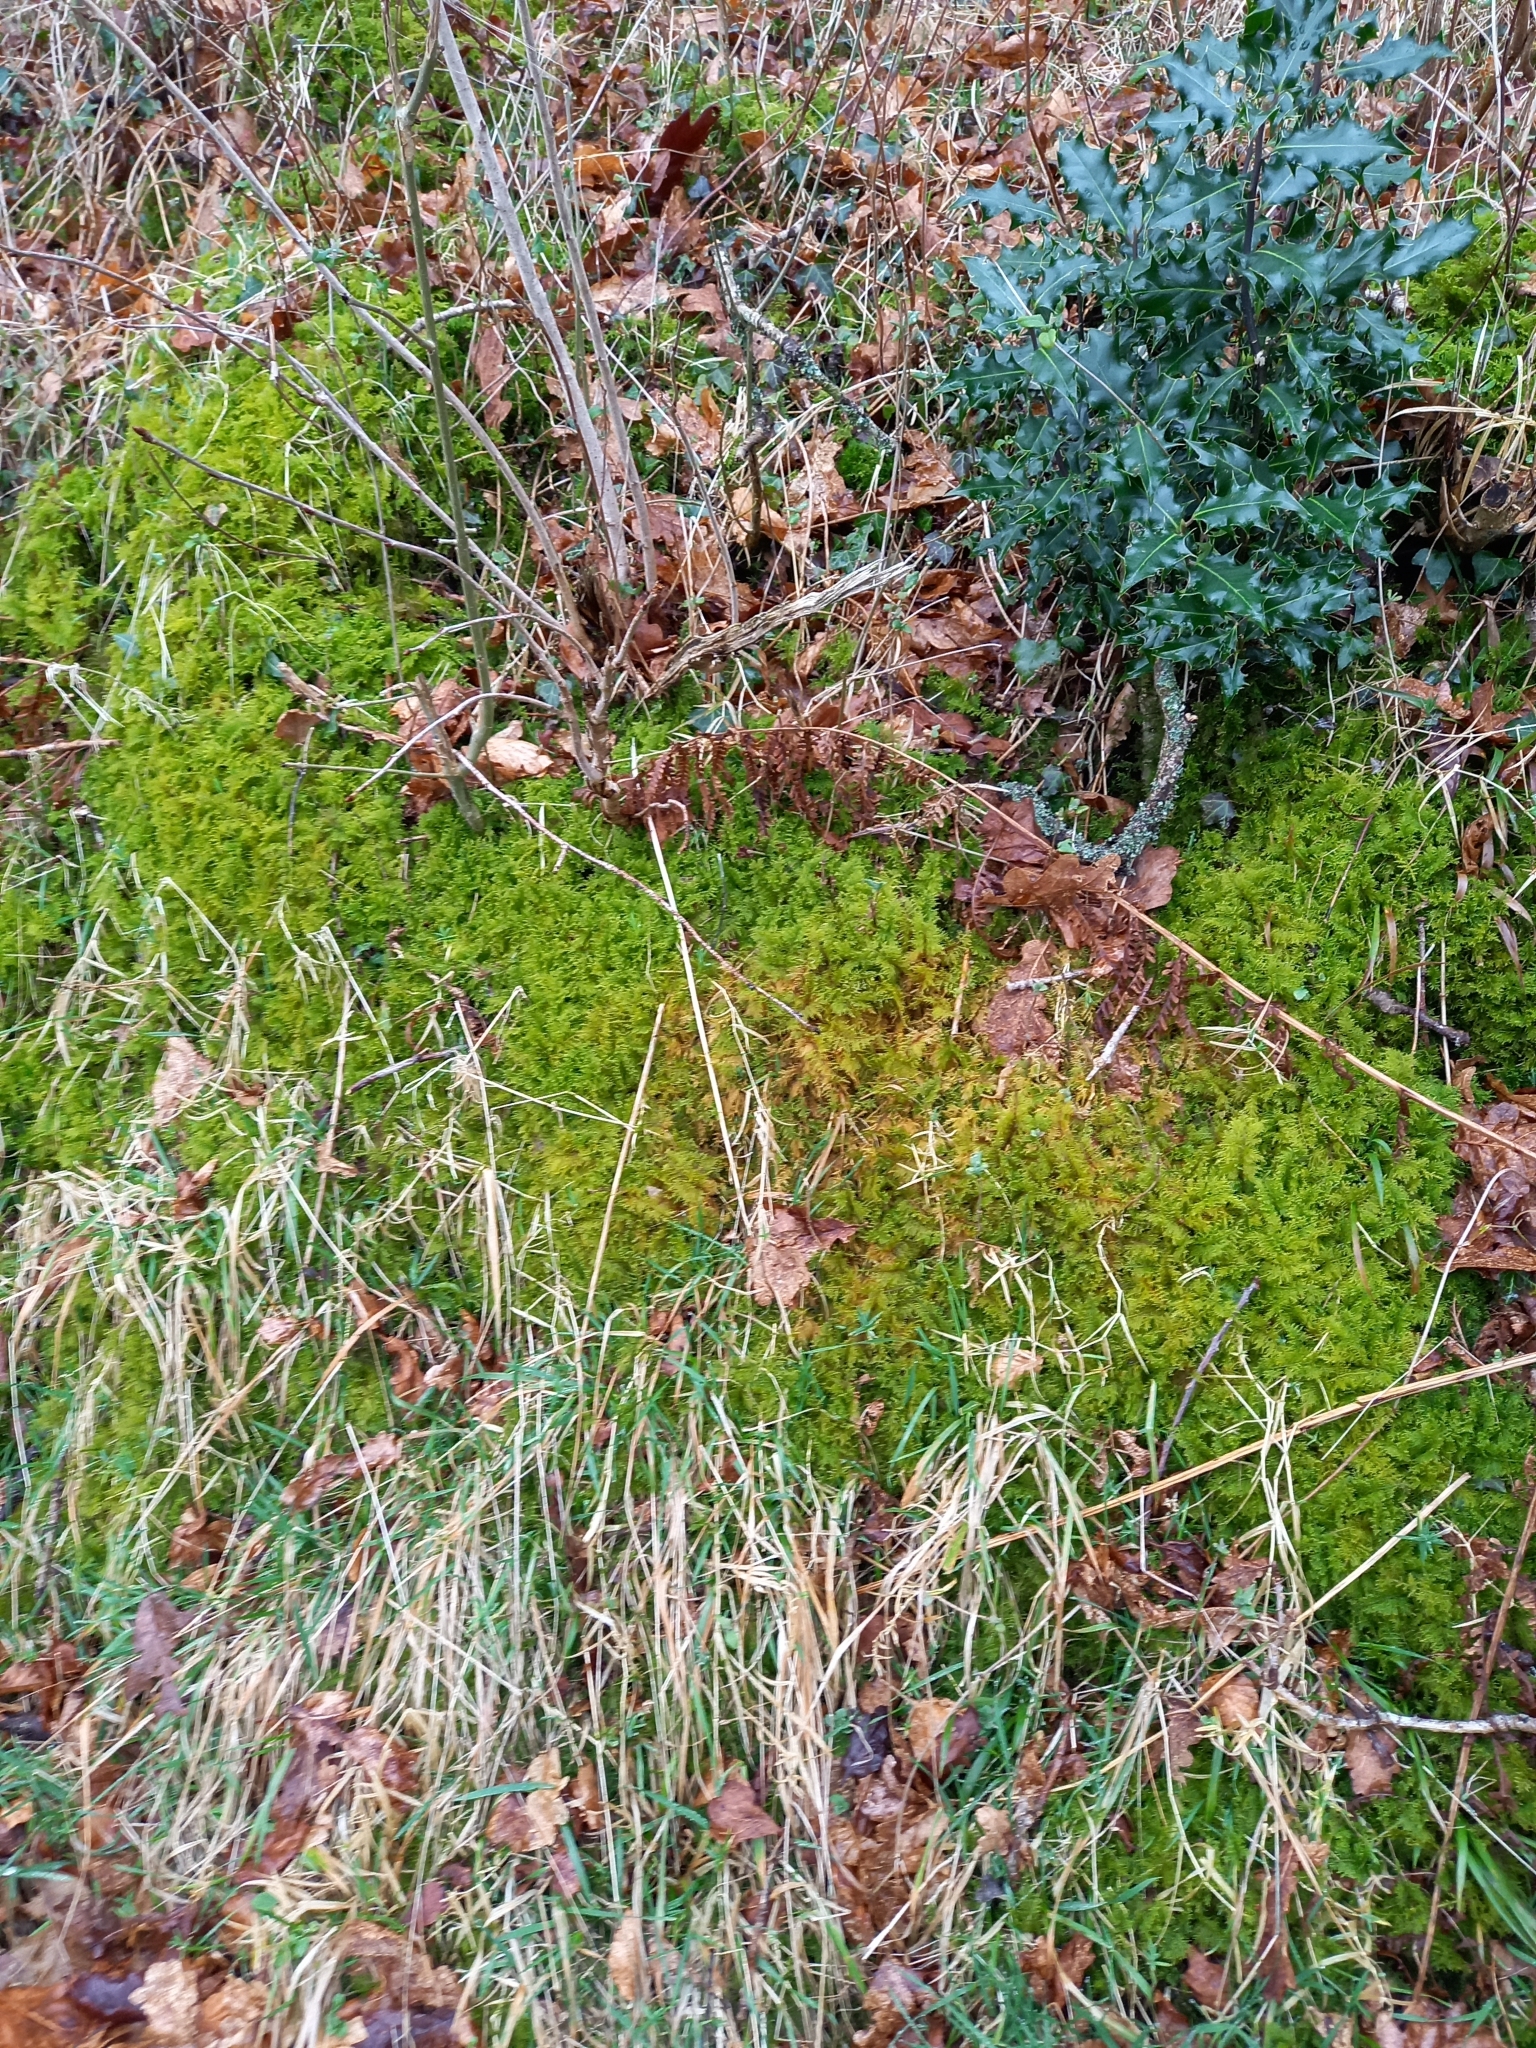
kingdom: Plantae
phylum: Bryophyta
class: Bryopsida
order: Hypnales
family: Thuidiaceae
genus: Thuidium
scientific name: Thuidium tamariscinum
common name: Common tamarisk-moss
